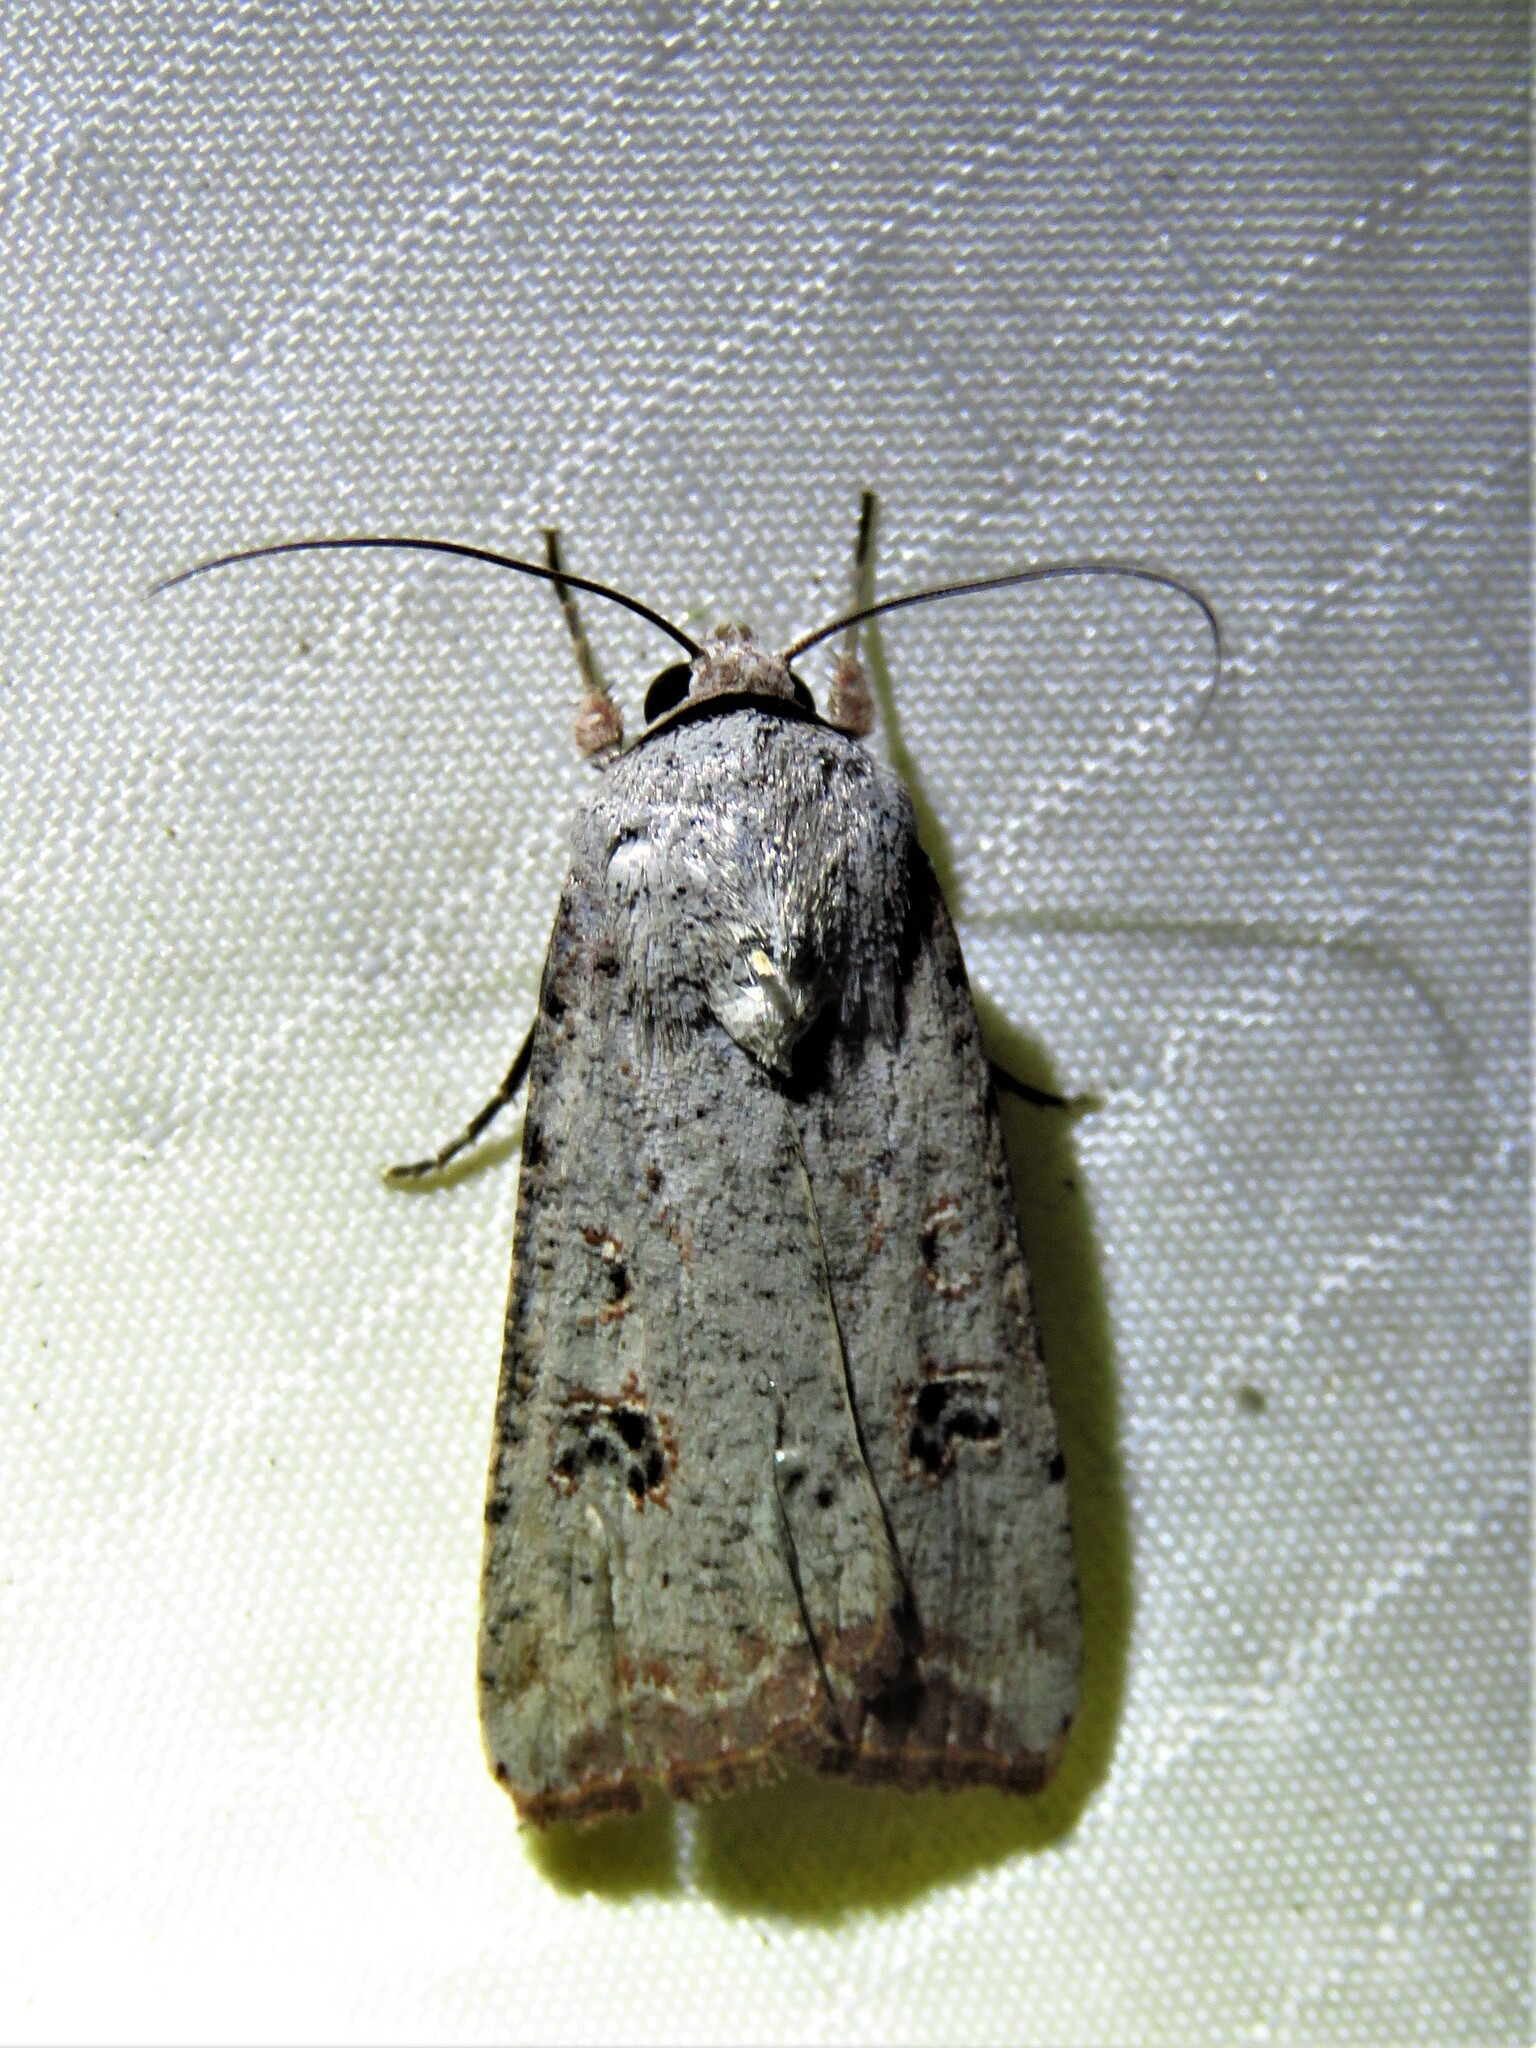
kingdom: Animalia
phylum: Arthropoda
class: Insecta
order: Lepidoptera
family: Noctuidae
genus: Anicla
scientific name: Anicla infecta
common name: Green cutworm
